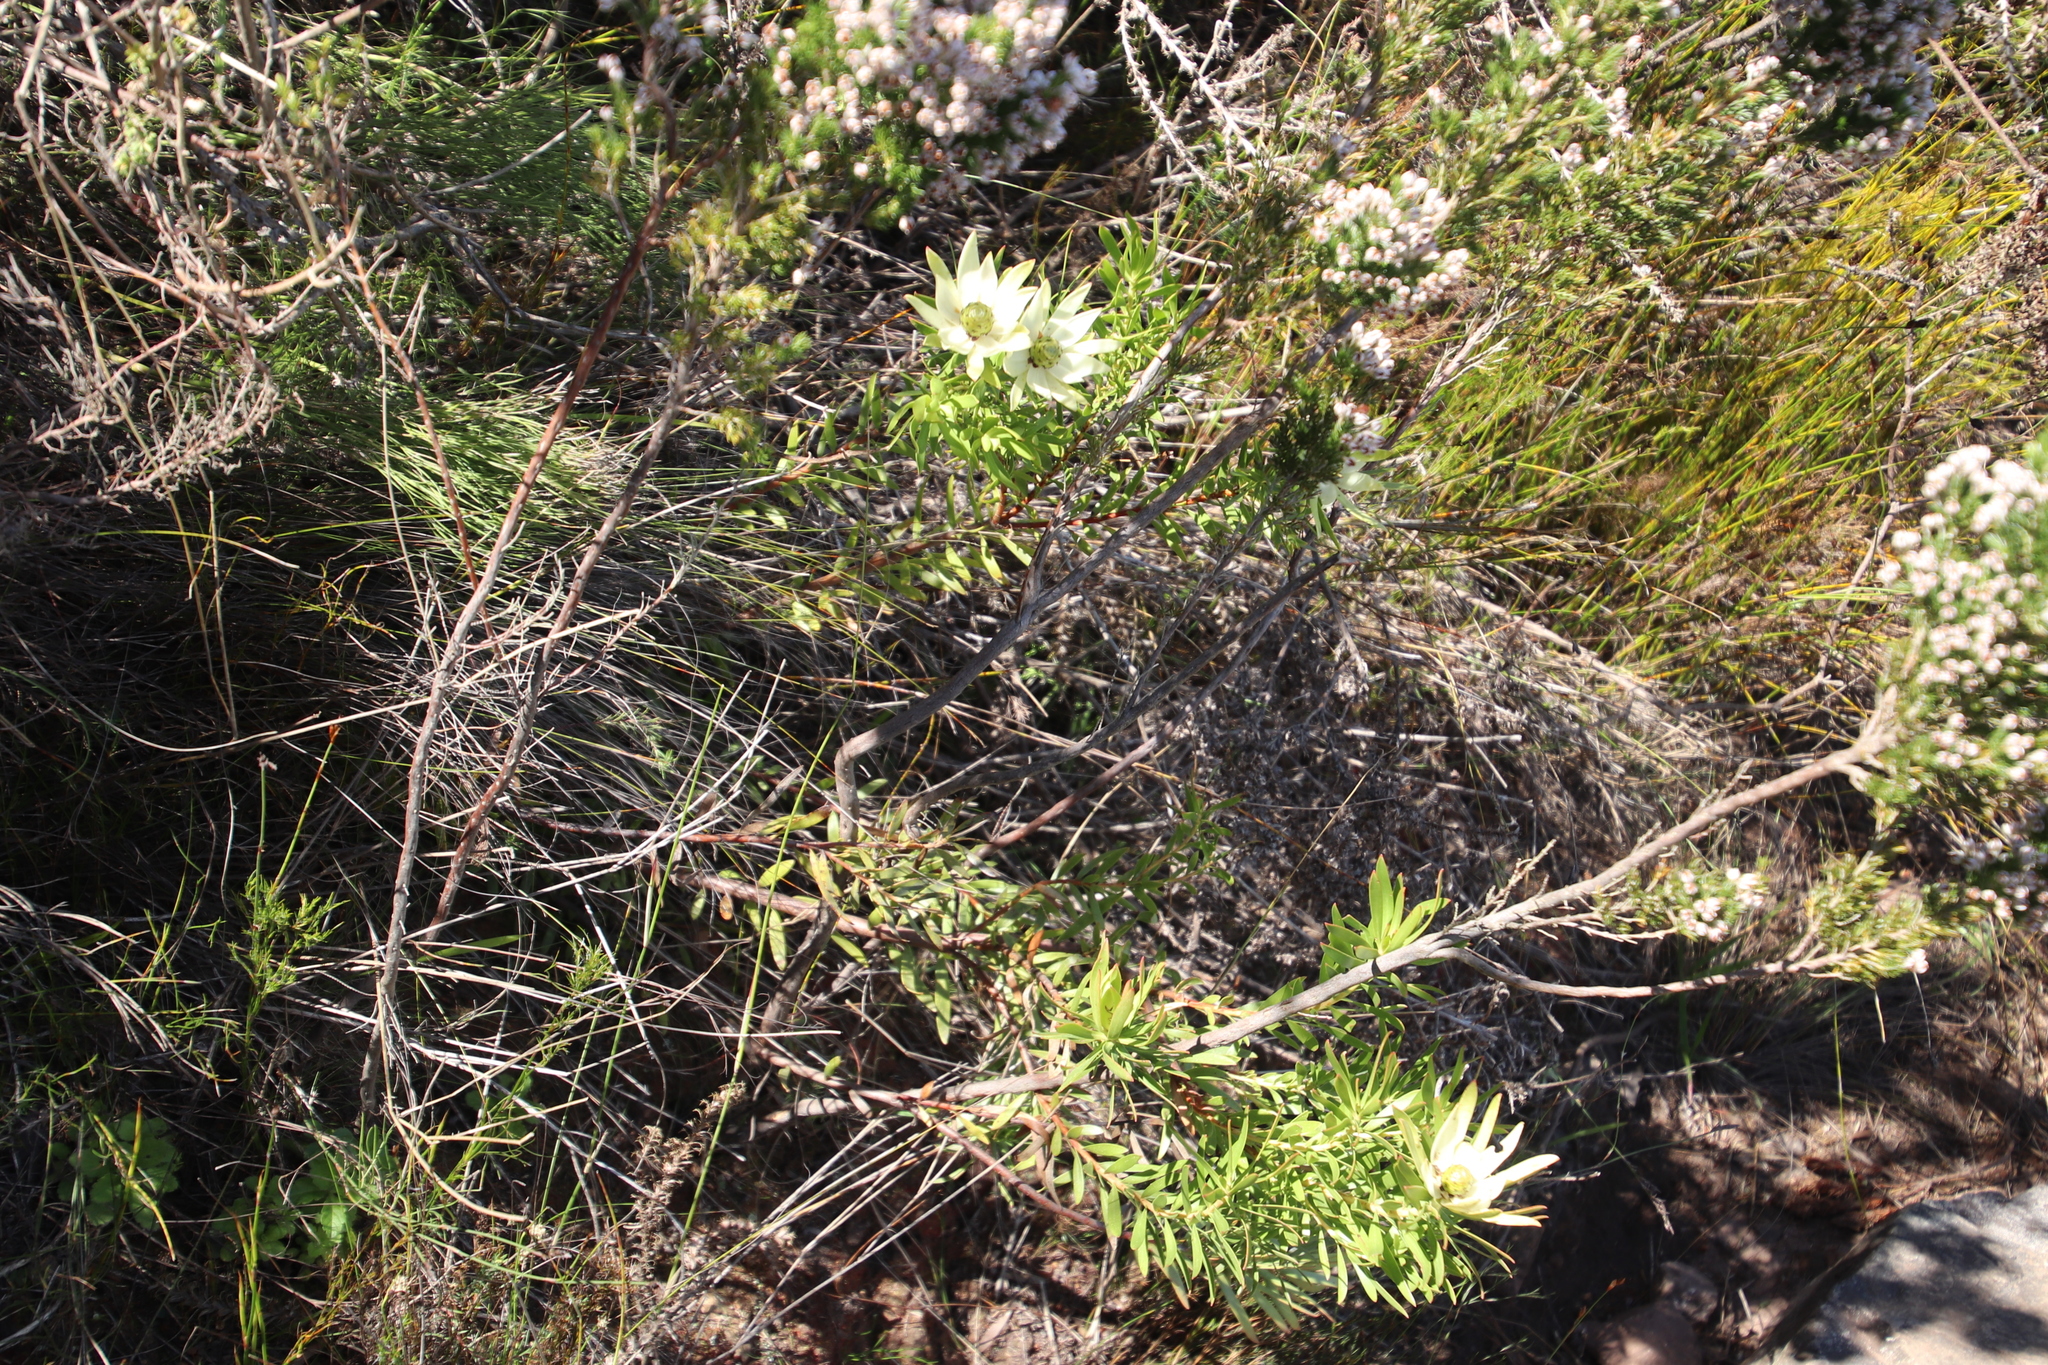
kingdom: Plantae
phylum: Tracheophyta
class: Magnoliopsida
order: Proteales
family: Proteaceae
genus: Leucadendron
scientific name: Leucadendron spissifolium
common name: Spear-leaf conebush
